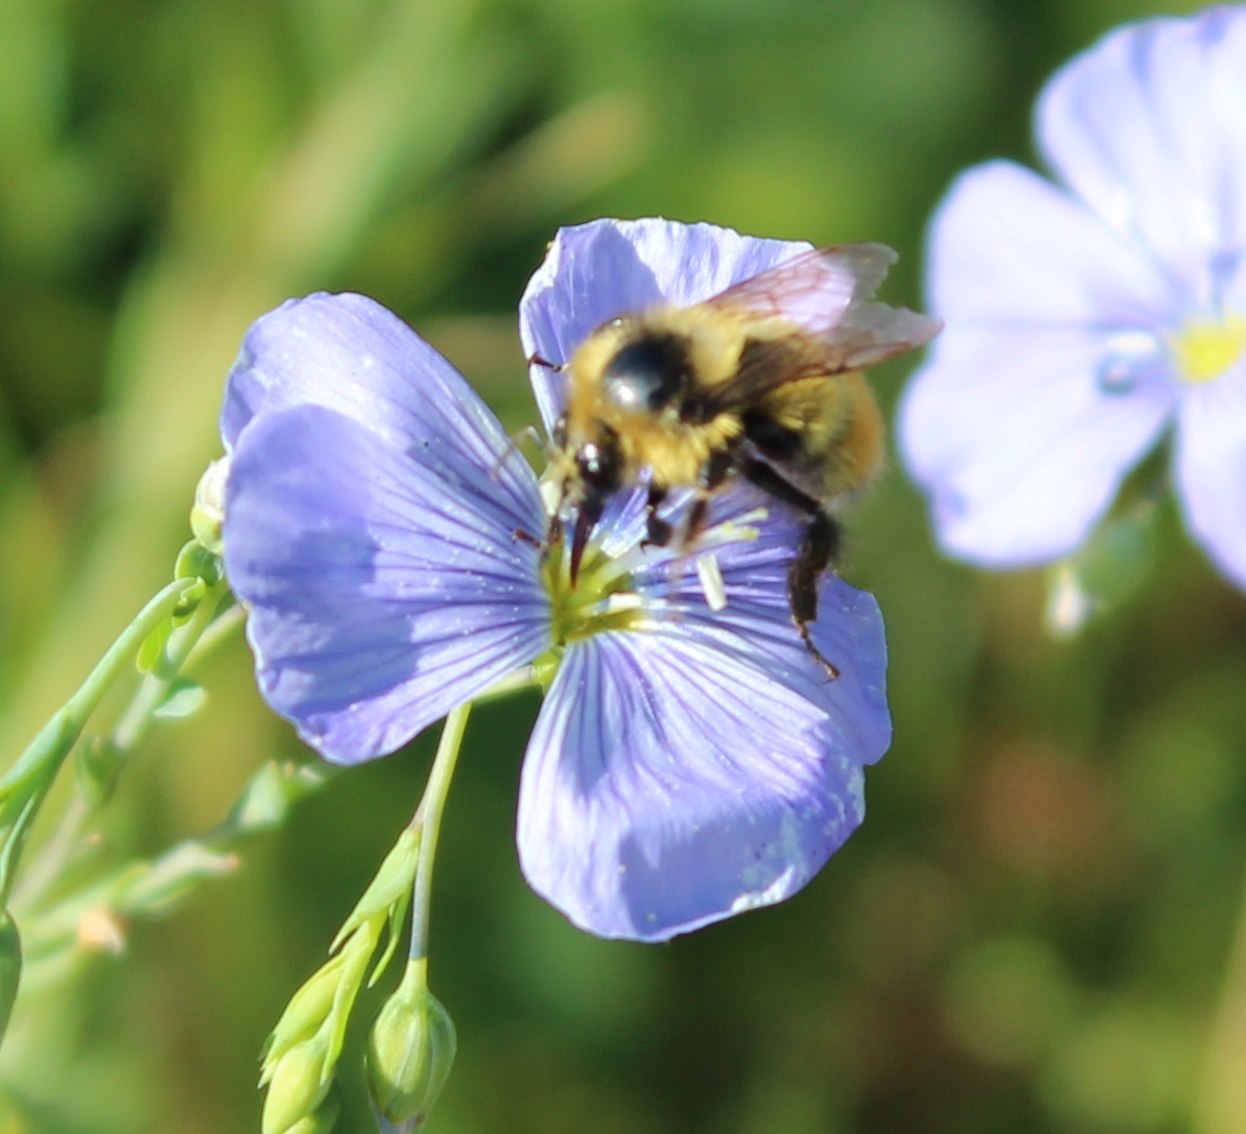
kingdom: Animalia
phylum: Arthropoda
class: Insecta
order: Hymenoptera
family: Apidae
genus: Bombus
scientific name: Bombus rufocinctus
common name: Red-belted bumble bee
